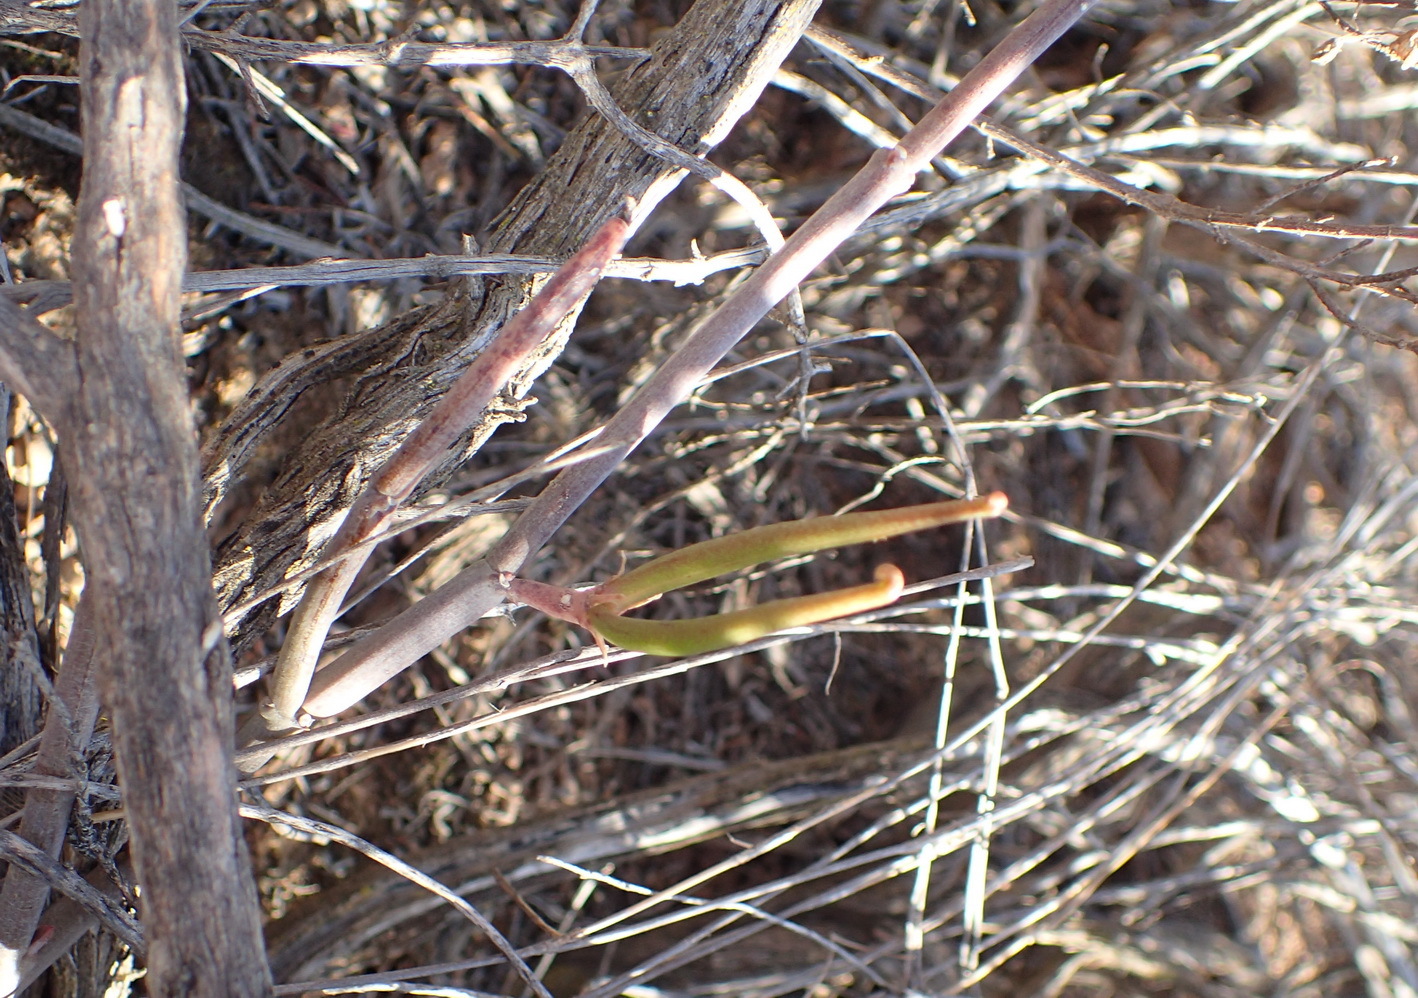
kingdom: Plantae
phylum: Tracheophyta
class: Magnoliopsida
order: Gentianales
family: Apocynaceae
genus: Ceropegia
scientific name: Ceropegia zeyheri
